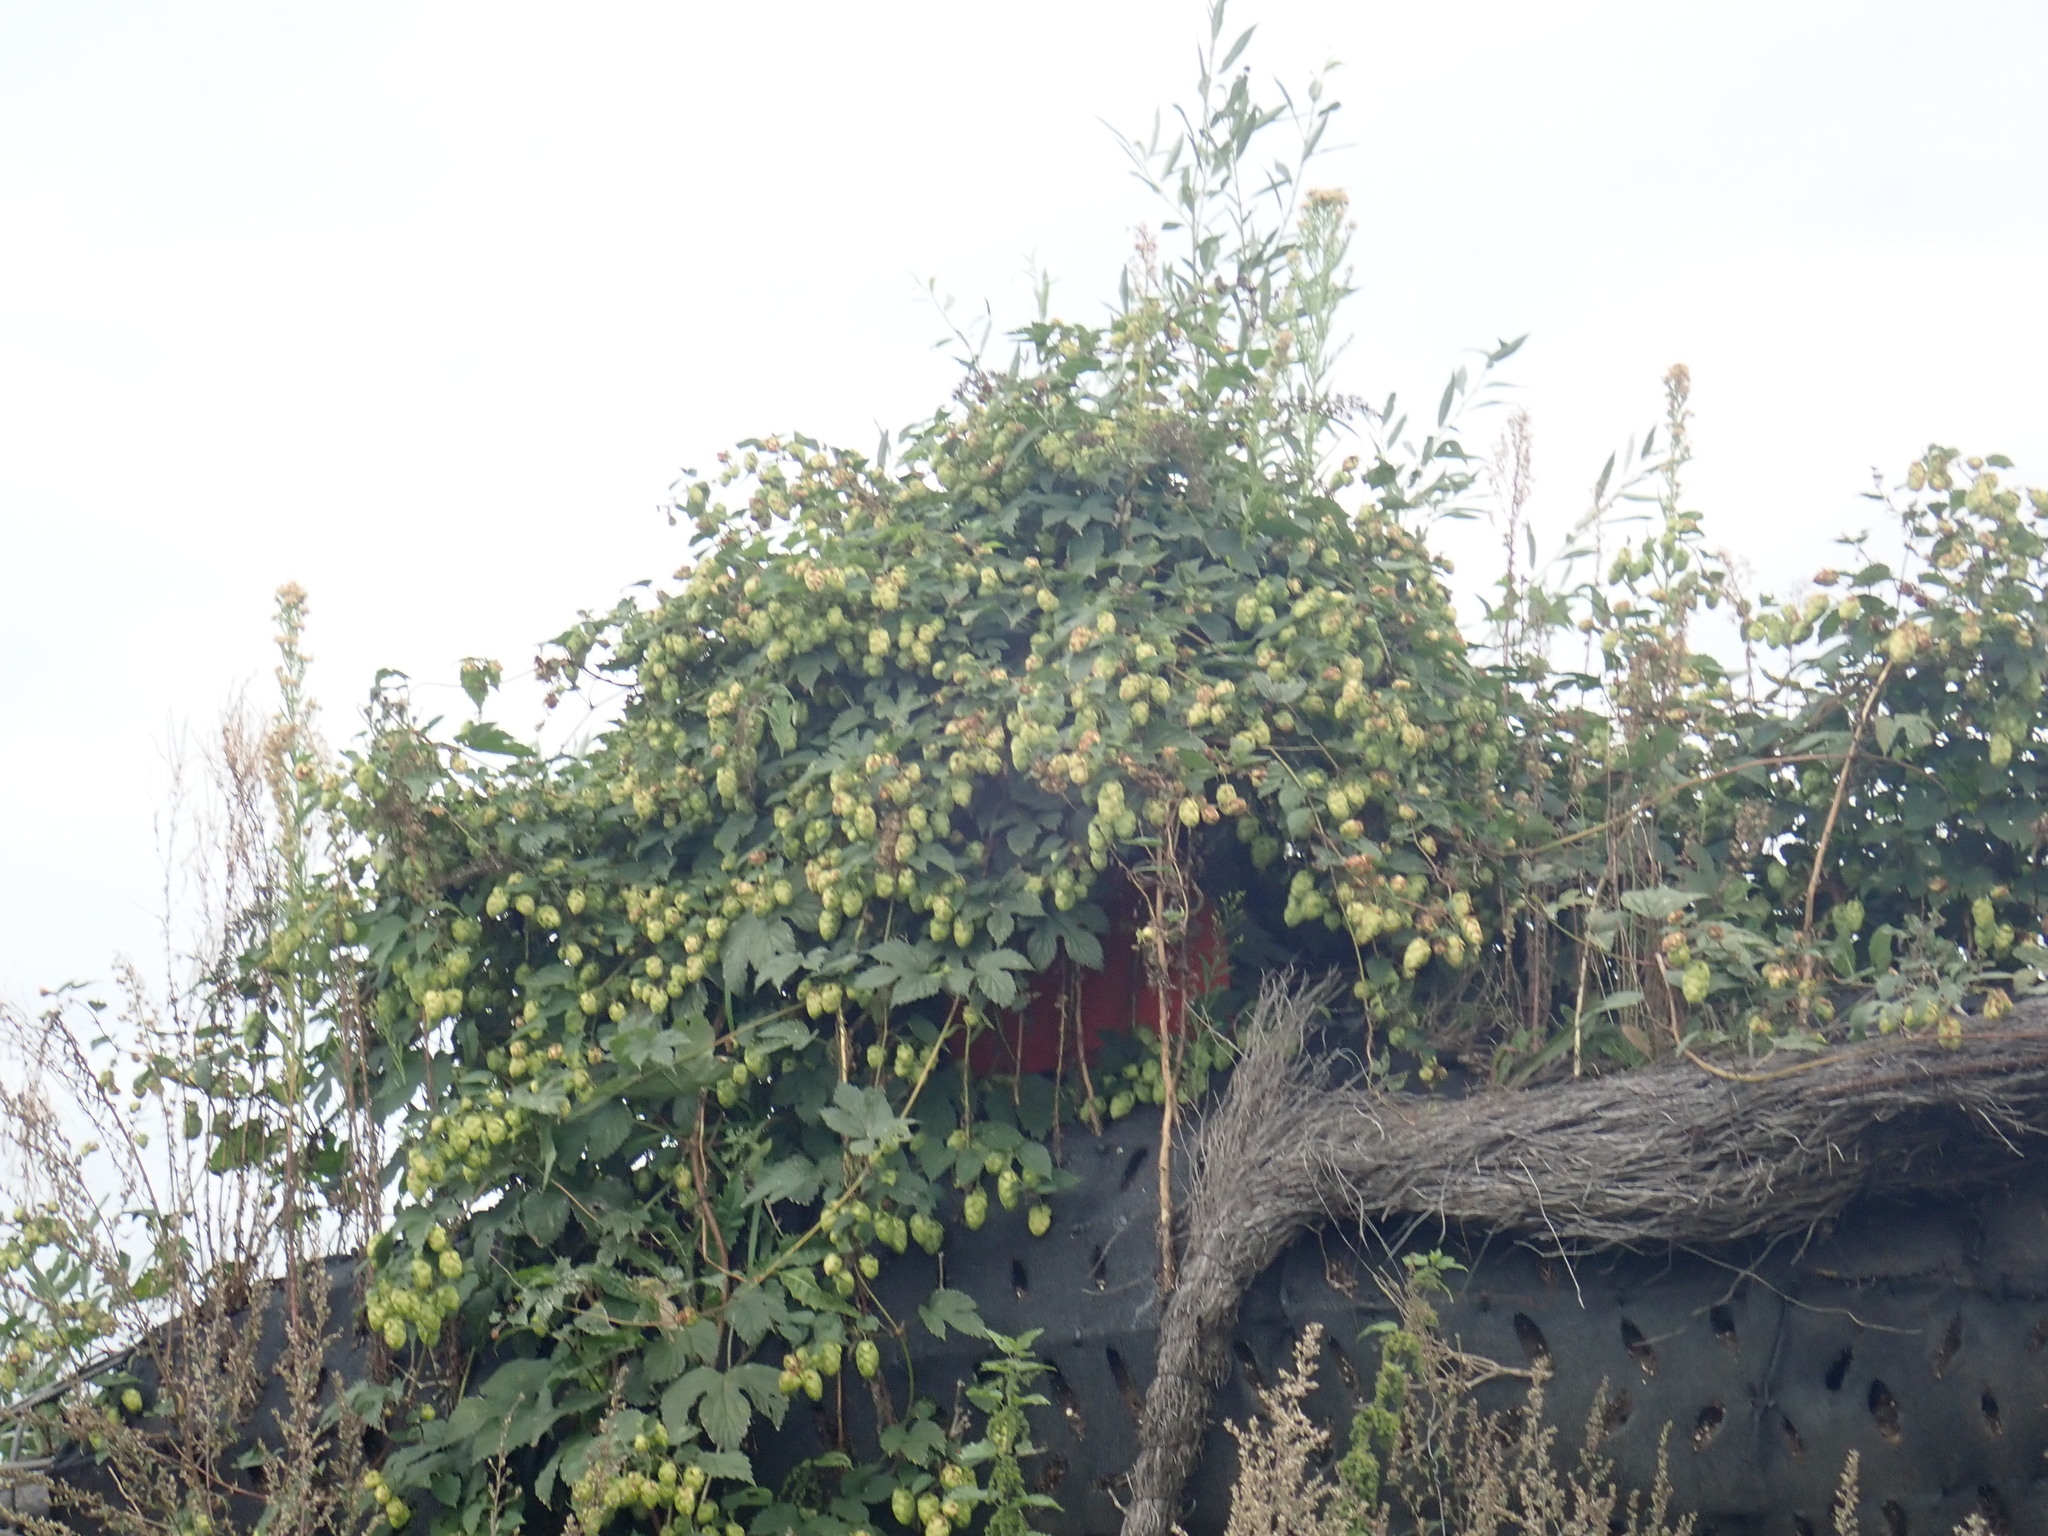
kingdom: Plantae
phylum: Tracheophyta
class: Magnoliopsida
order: Rosales
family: Cannabaceae
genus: Humulus
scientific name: Humulus lupulus
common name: Hop
